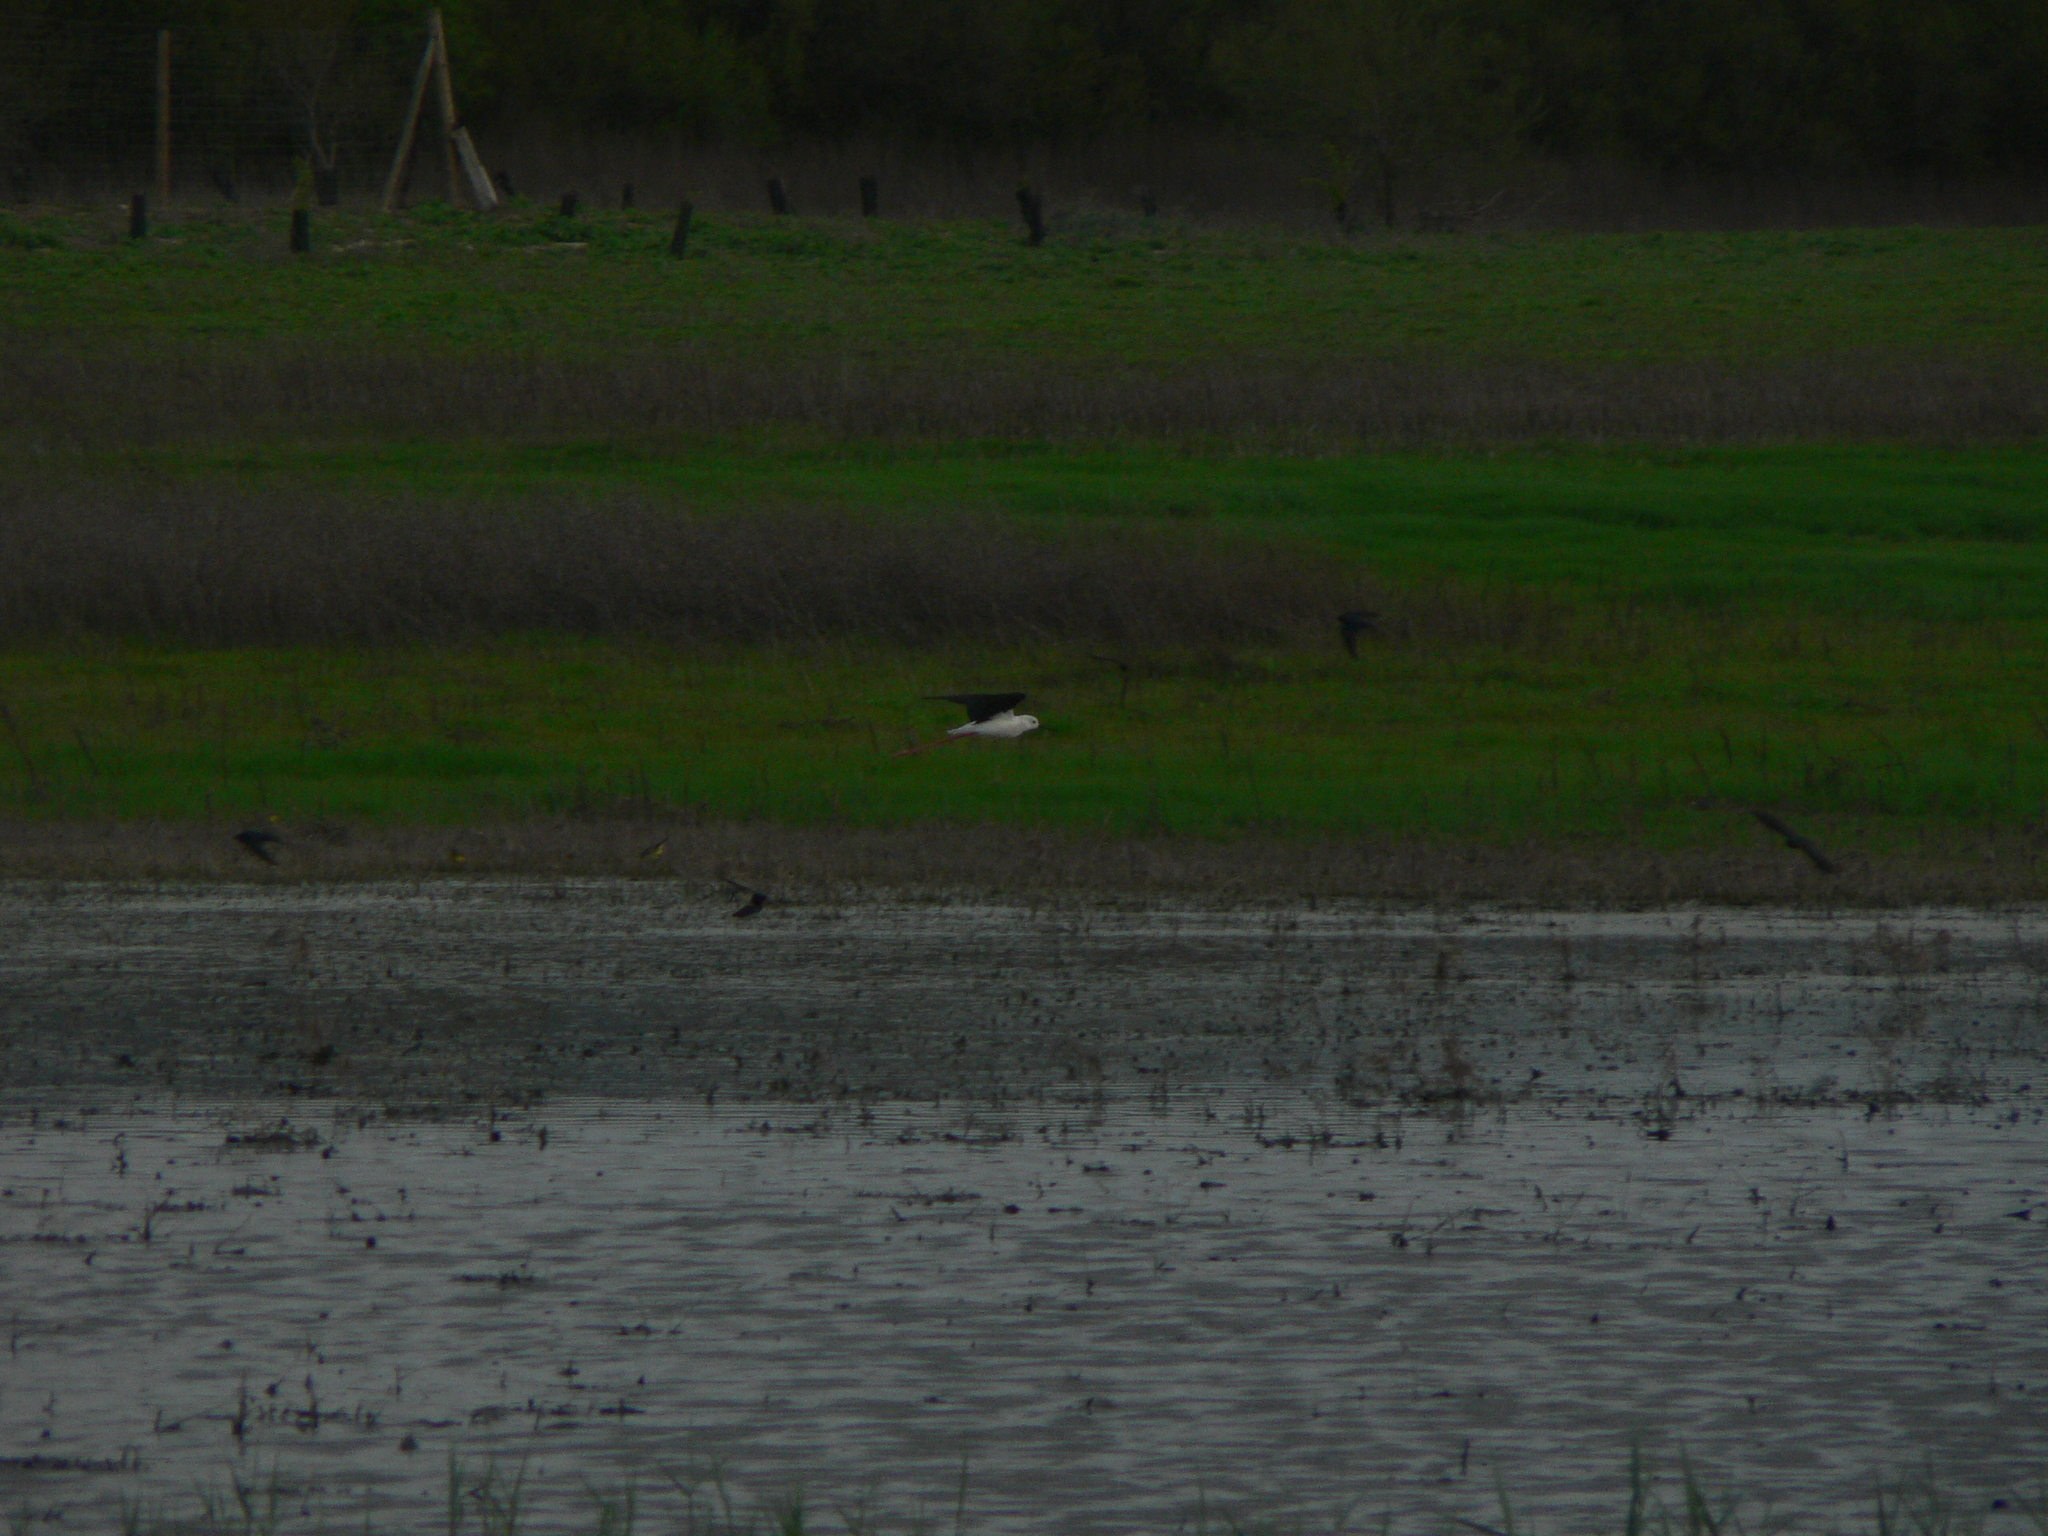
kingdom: Animalia
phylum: Chordata
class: Aves
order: Charadriiformes
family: Recurvirostridae
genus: Himantopus
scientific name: Himantopus himantopus
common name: Black-winged stilt
